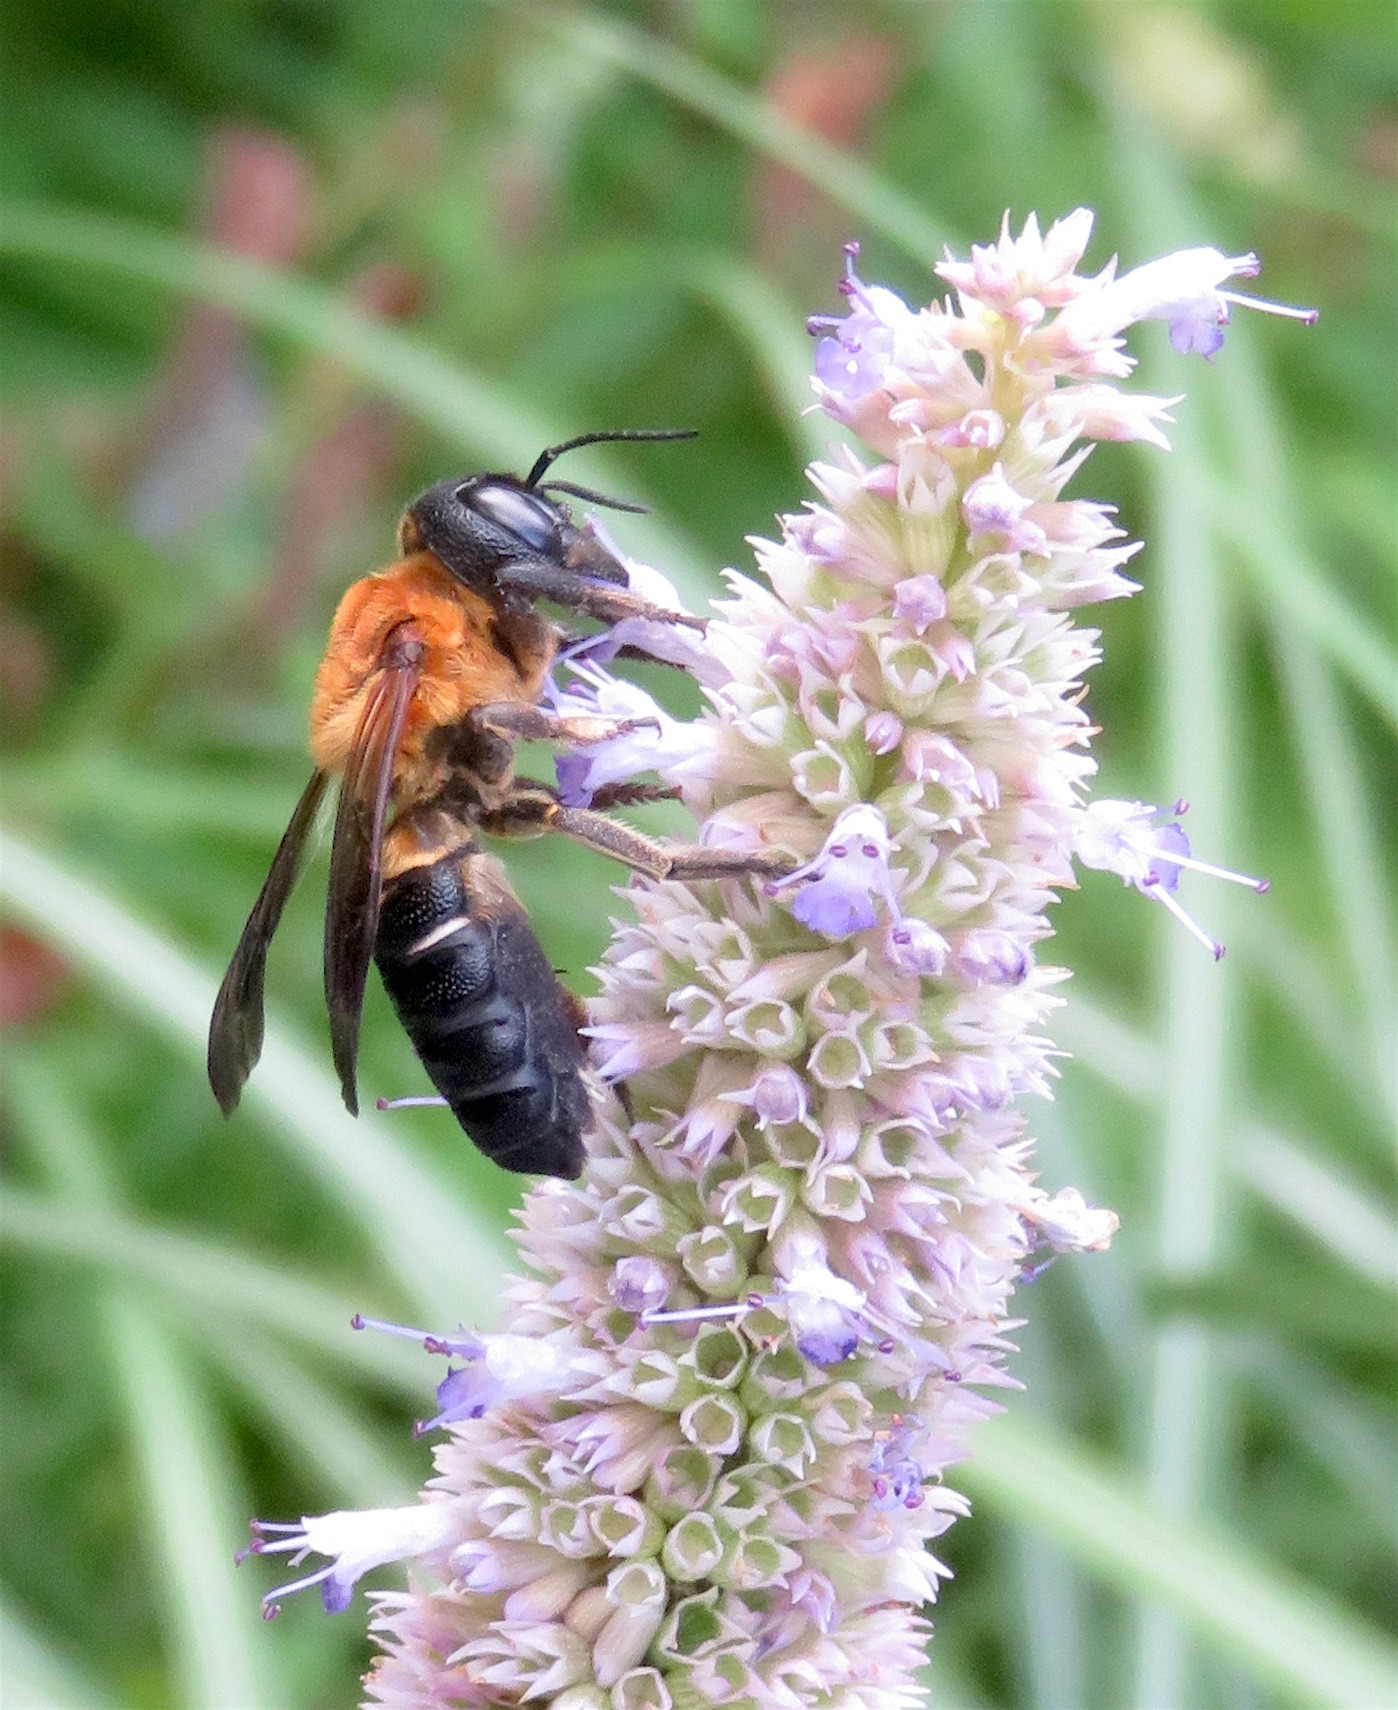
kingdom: Animalia
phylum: Arthropoda
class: Insecta
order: Hymenoptera
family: Megachilidae
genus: Megachile
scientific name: Megachile sculpturalis
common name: Sculptured resin bee
